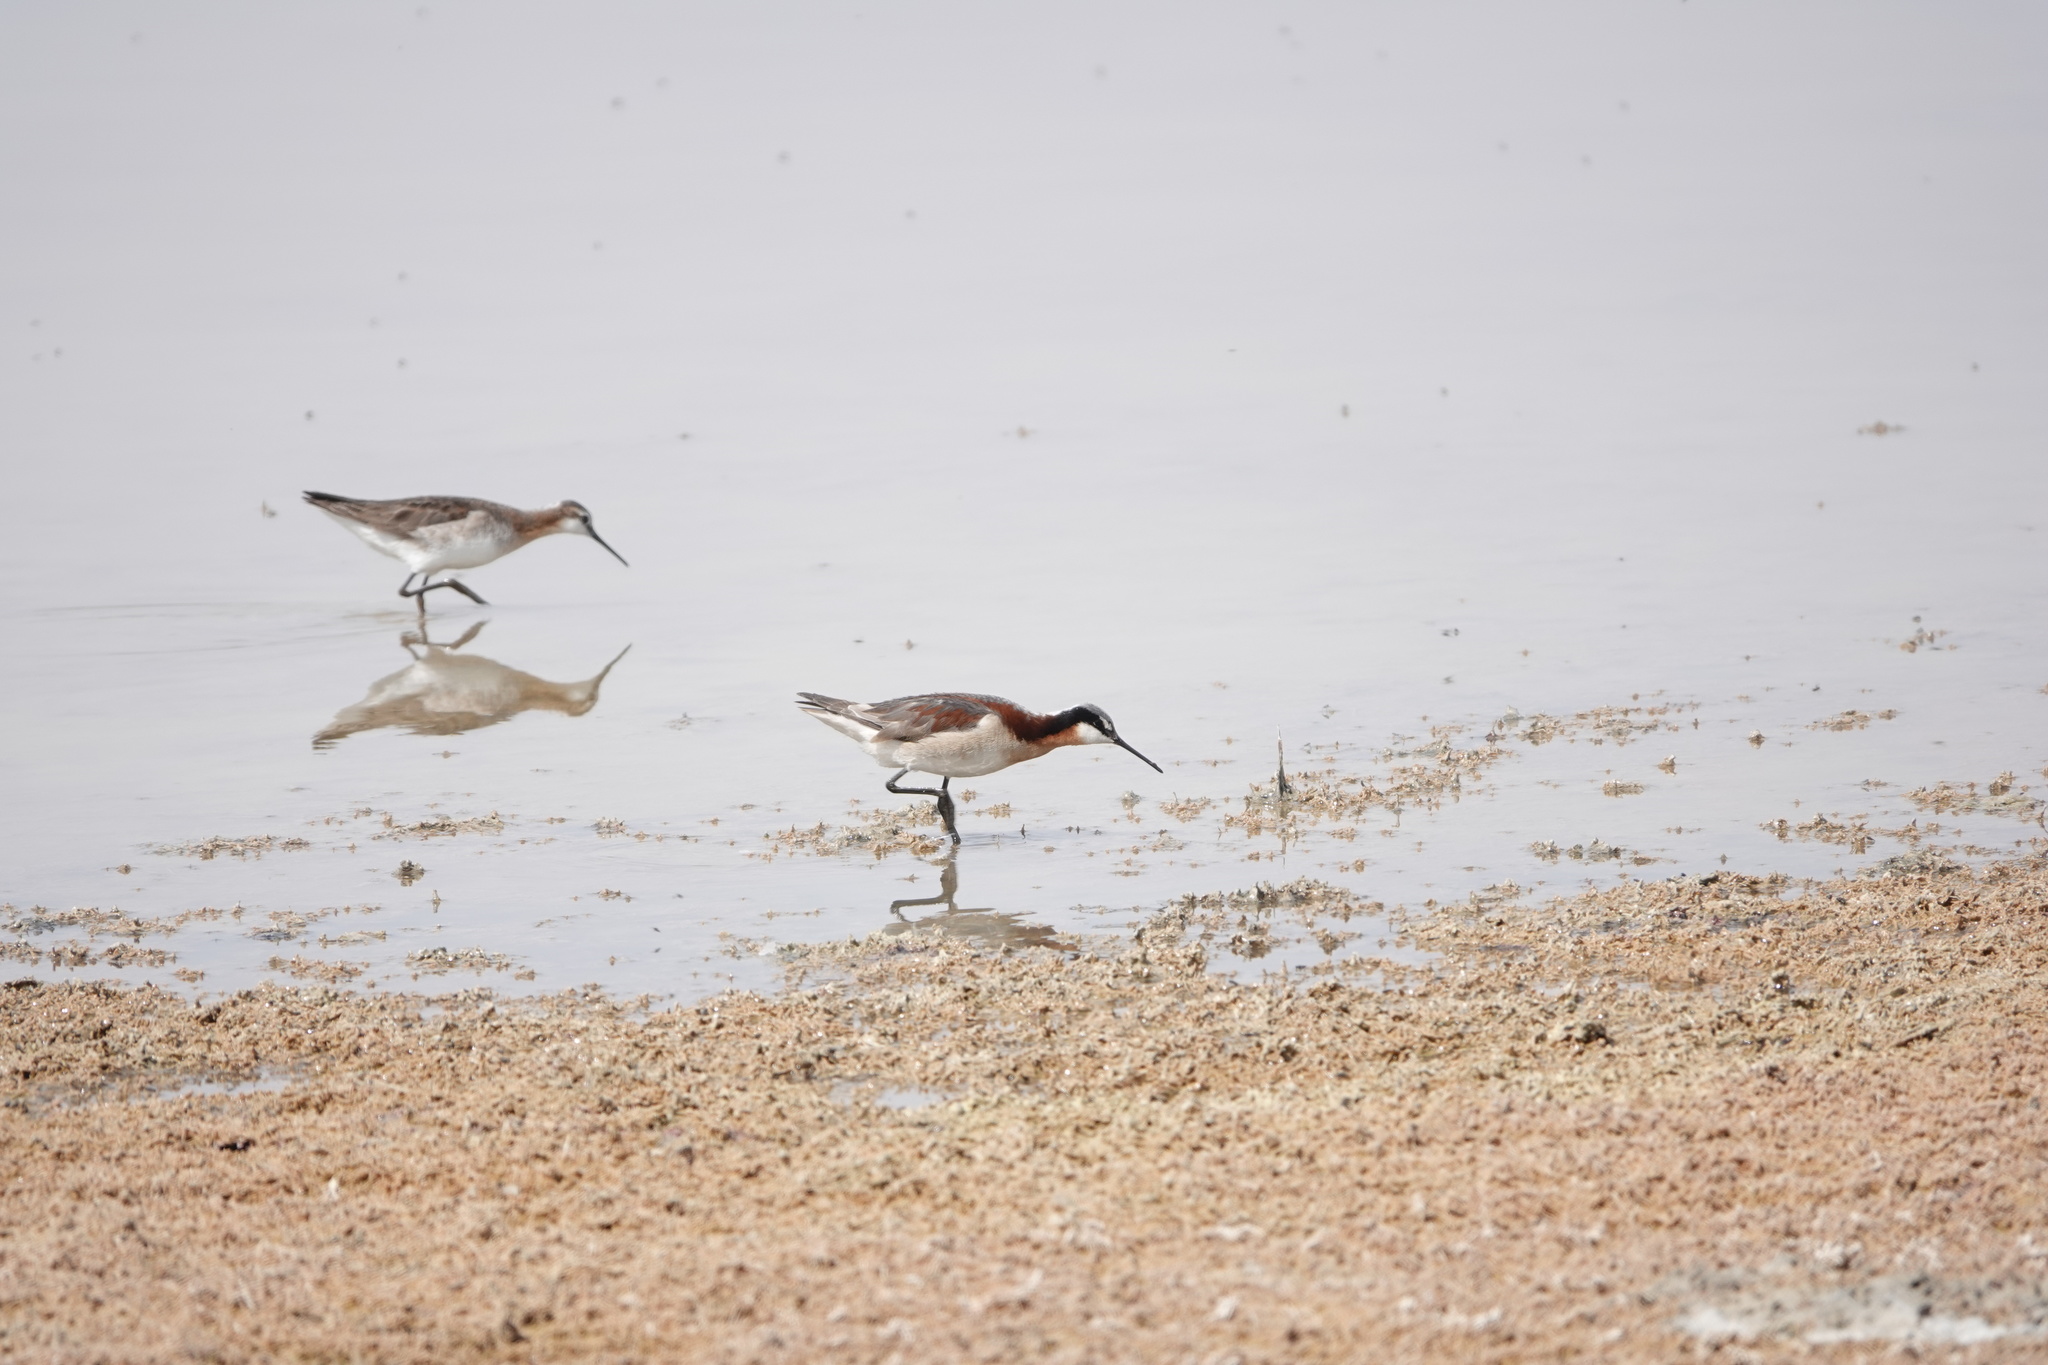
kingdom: Animalia
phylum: Chordata
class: Aves
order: Charadriiformes
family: Scolopacidae
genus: Phalaropus
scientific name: Phalaropus tricolor
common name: Wilson's phalarope
